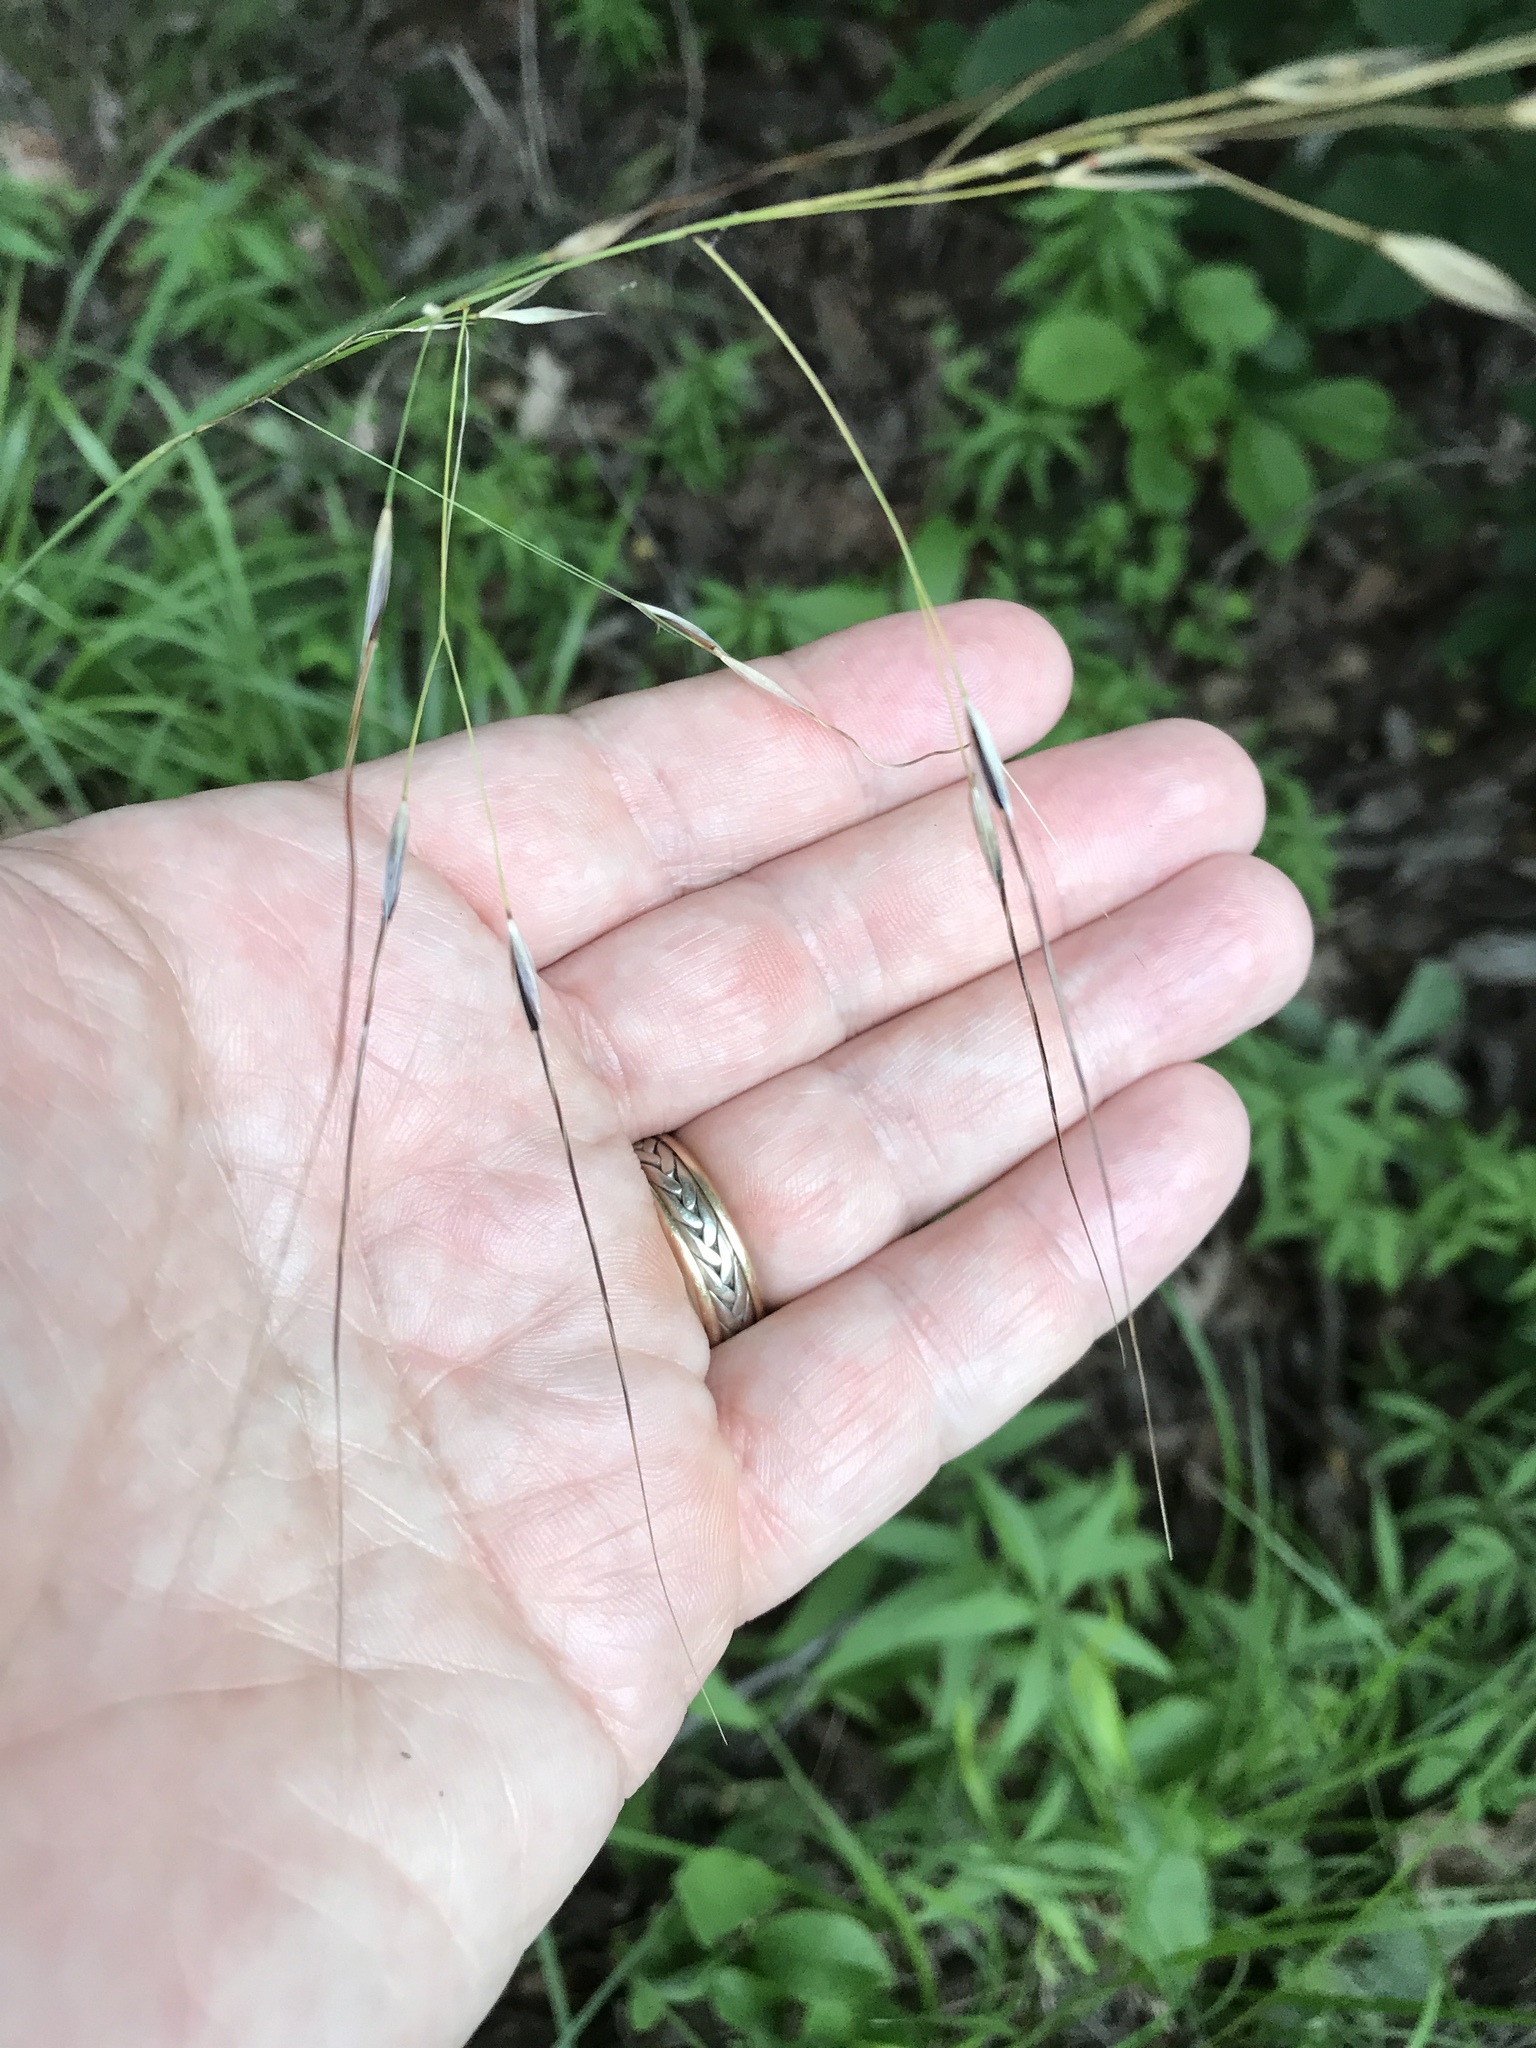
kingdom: Plantae
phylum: Tracheophyta
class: Liliopsida
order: Poales
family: Poaceae
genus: Piptochaetium
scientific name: Piptochaetium avenaceum
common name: Black bunchgrass
